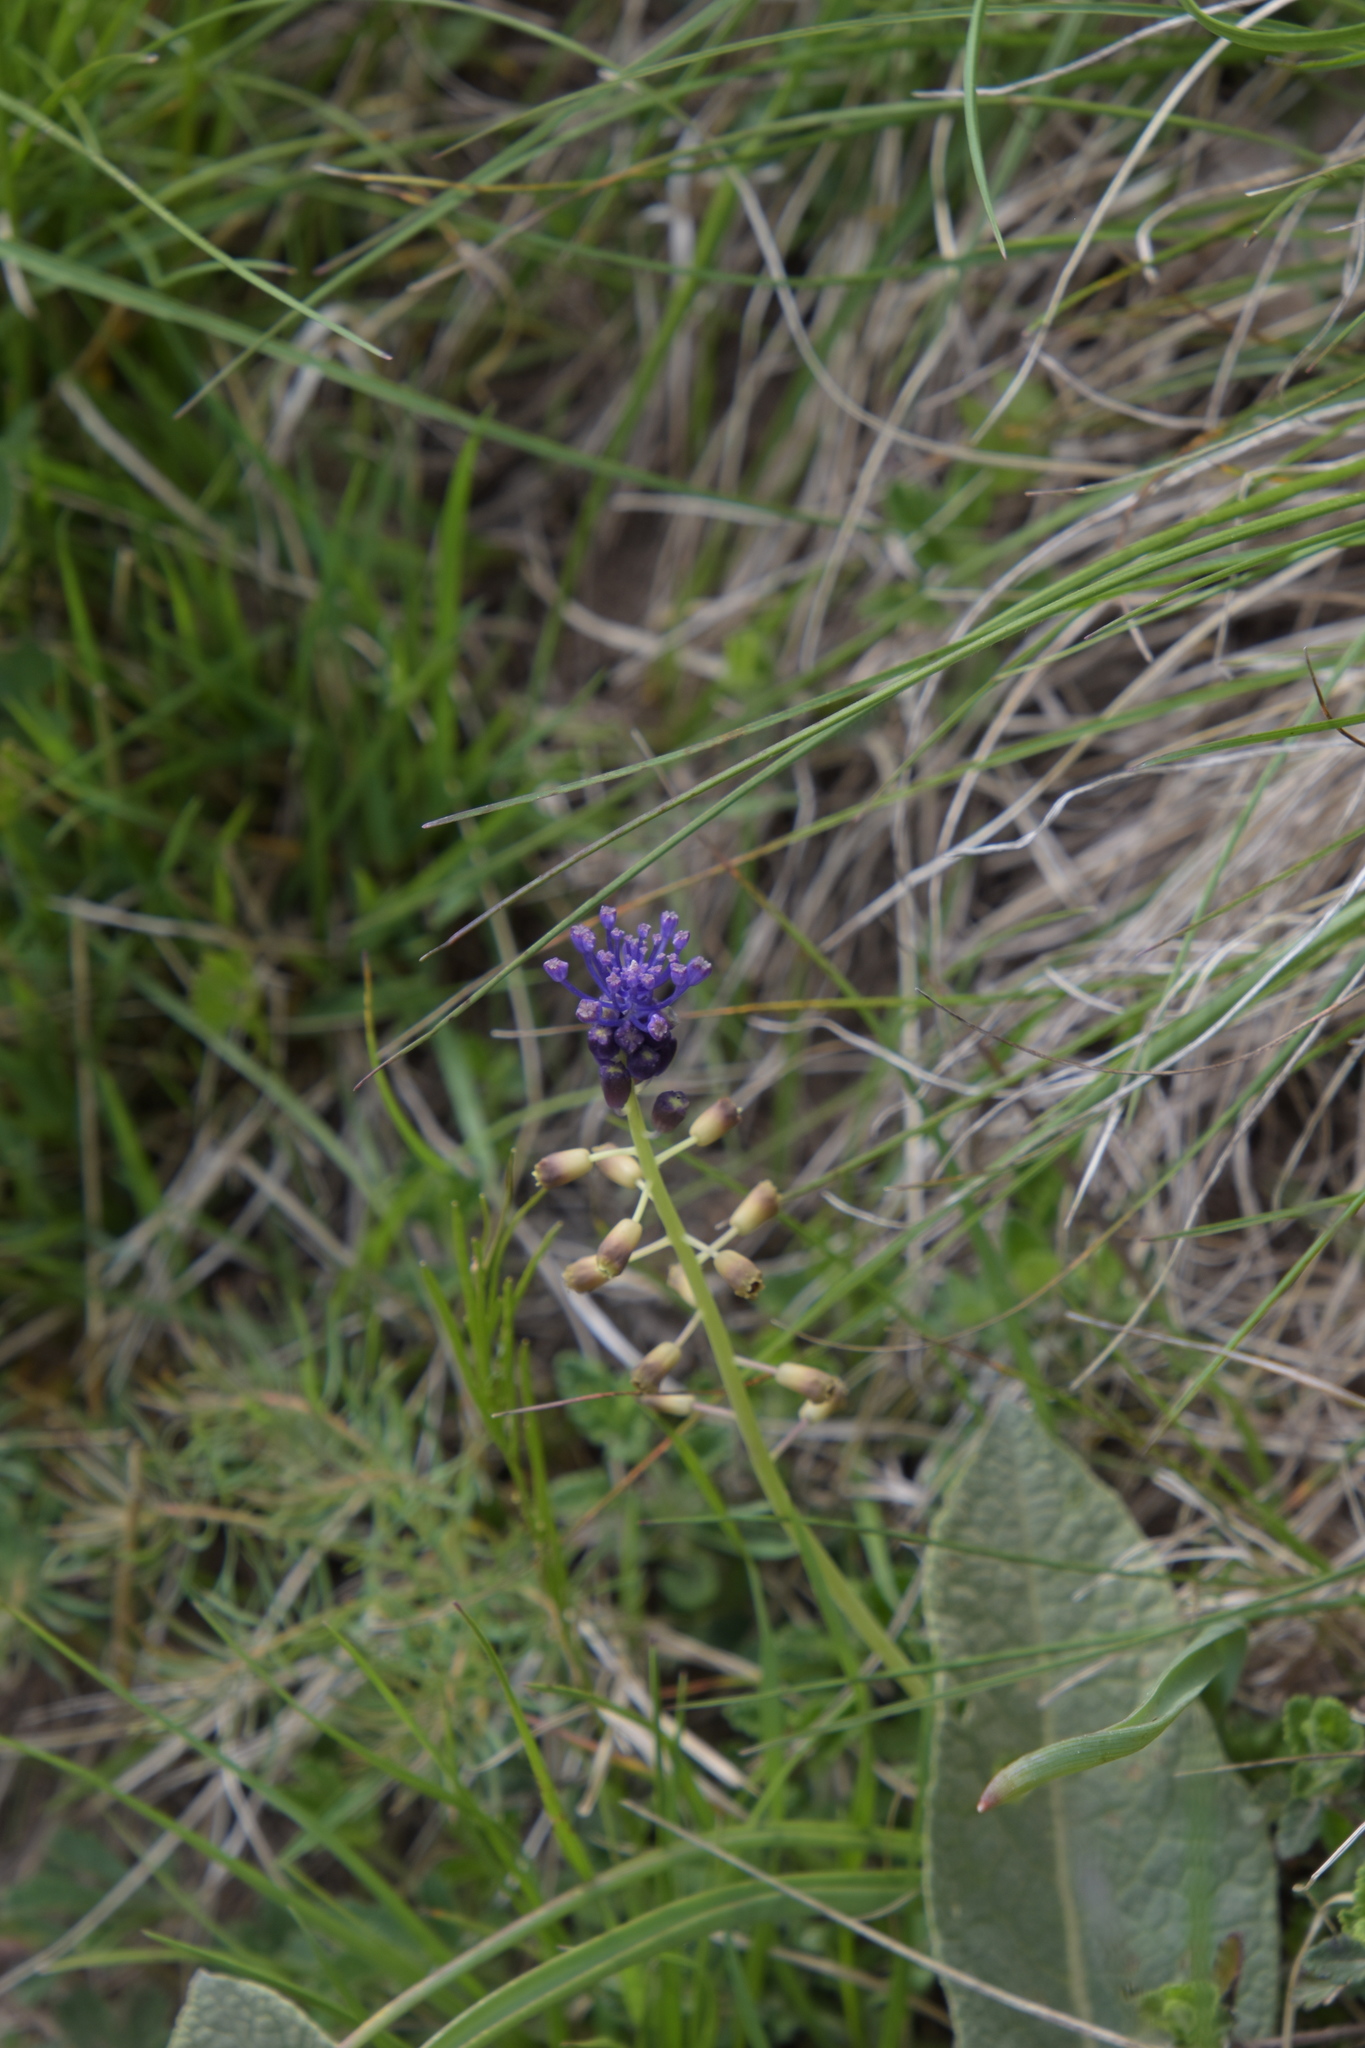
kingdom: Plantae
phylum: Tracheophyta
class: Liliopsida
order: Asparagales
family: Asparagaceae
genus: Muscari
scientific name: Muscari comosum
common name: Tassel hyacinth
